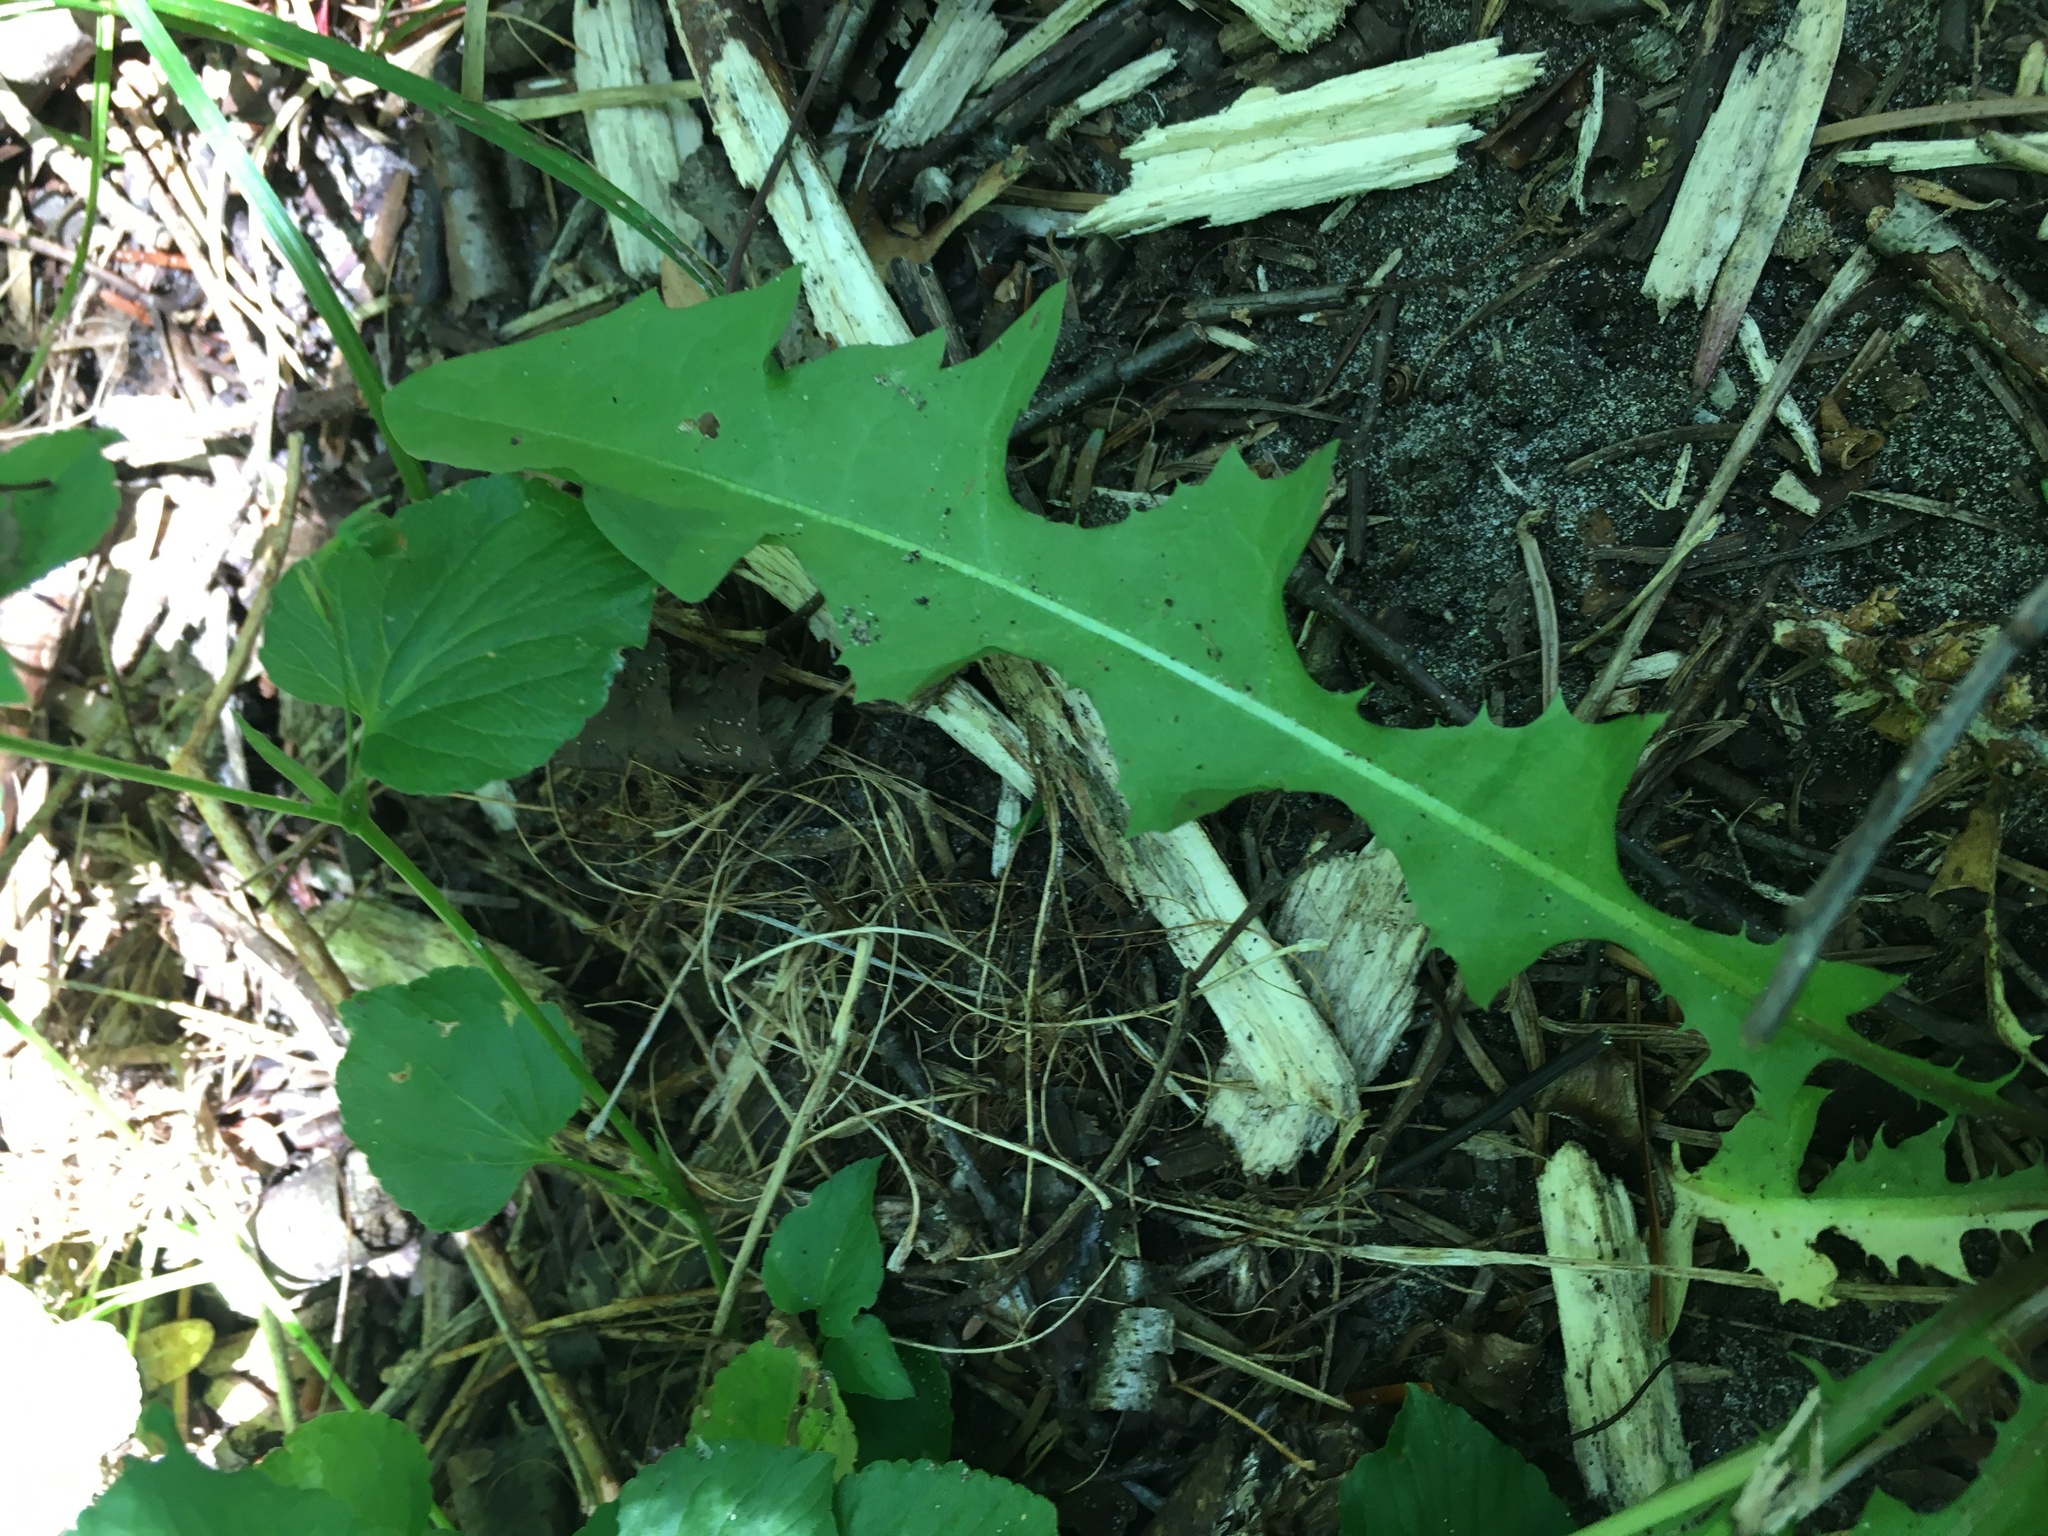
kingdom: Plantae
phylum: Tracheophyta
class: Magnoliopsida
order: Asterales
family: Asteraceae
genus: Taraxacum
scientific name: Taraxacum officinale
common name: Common dandelion
